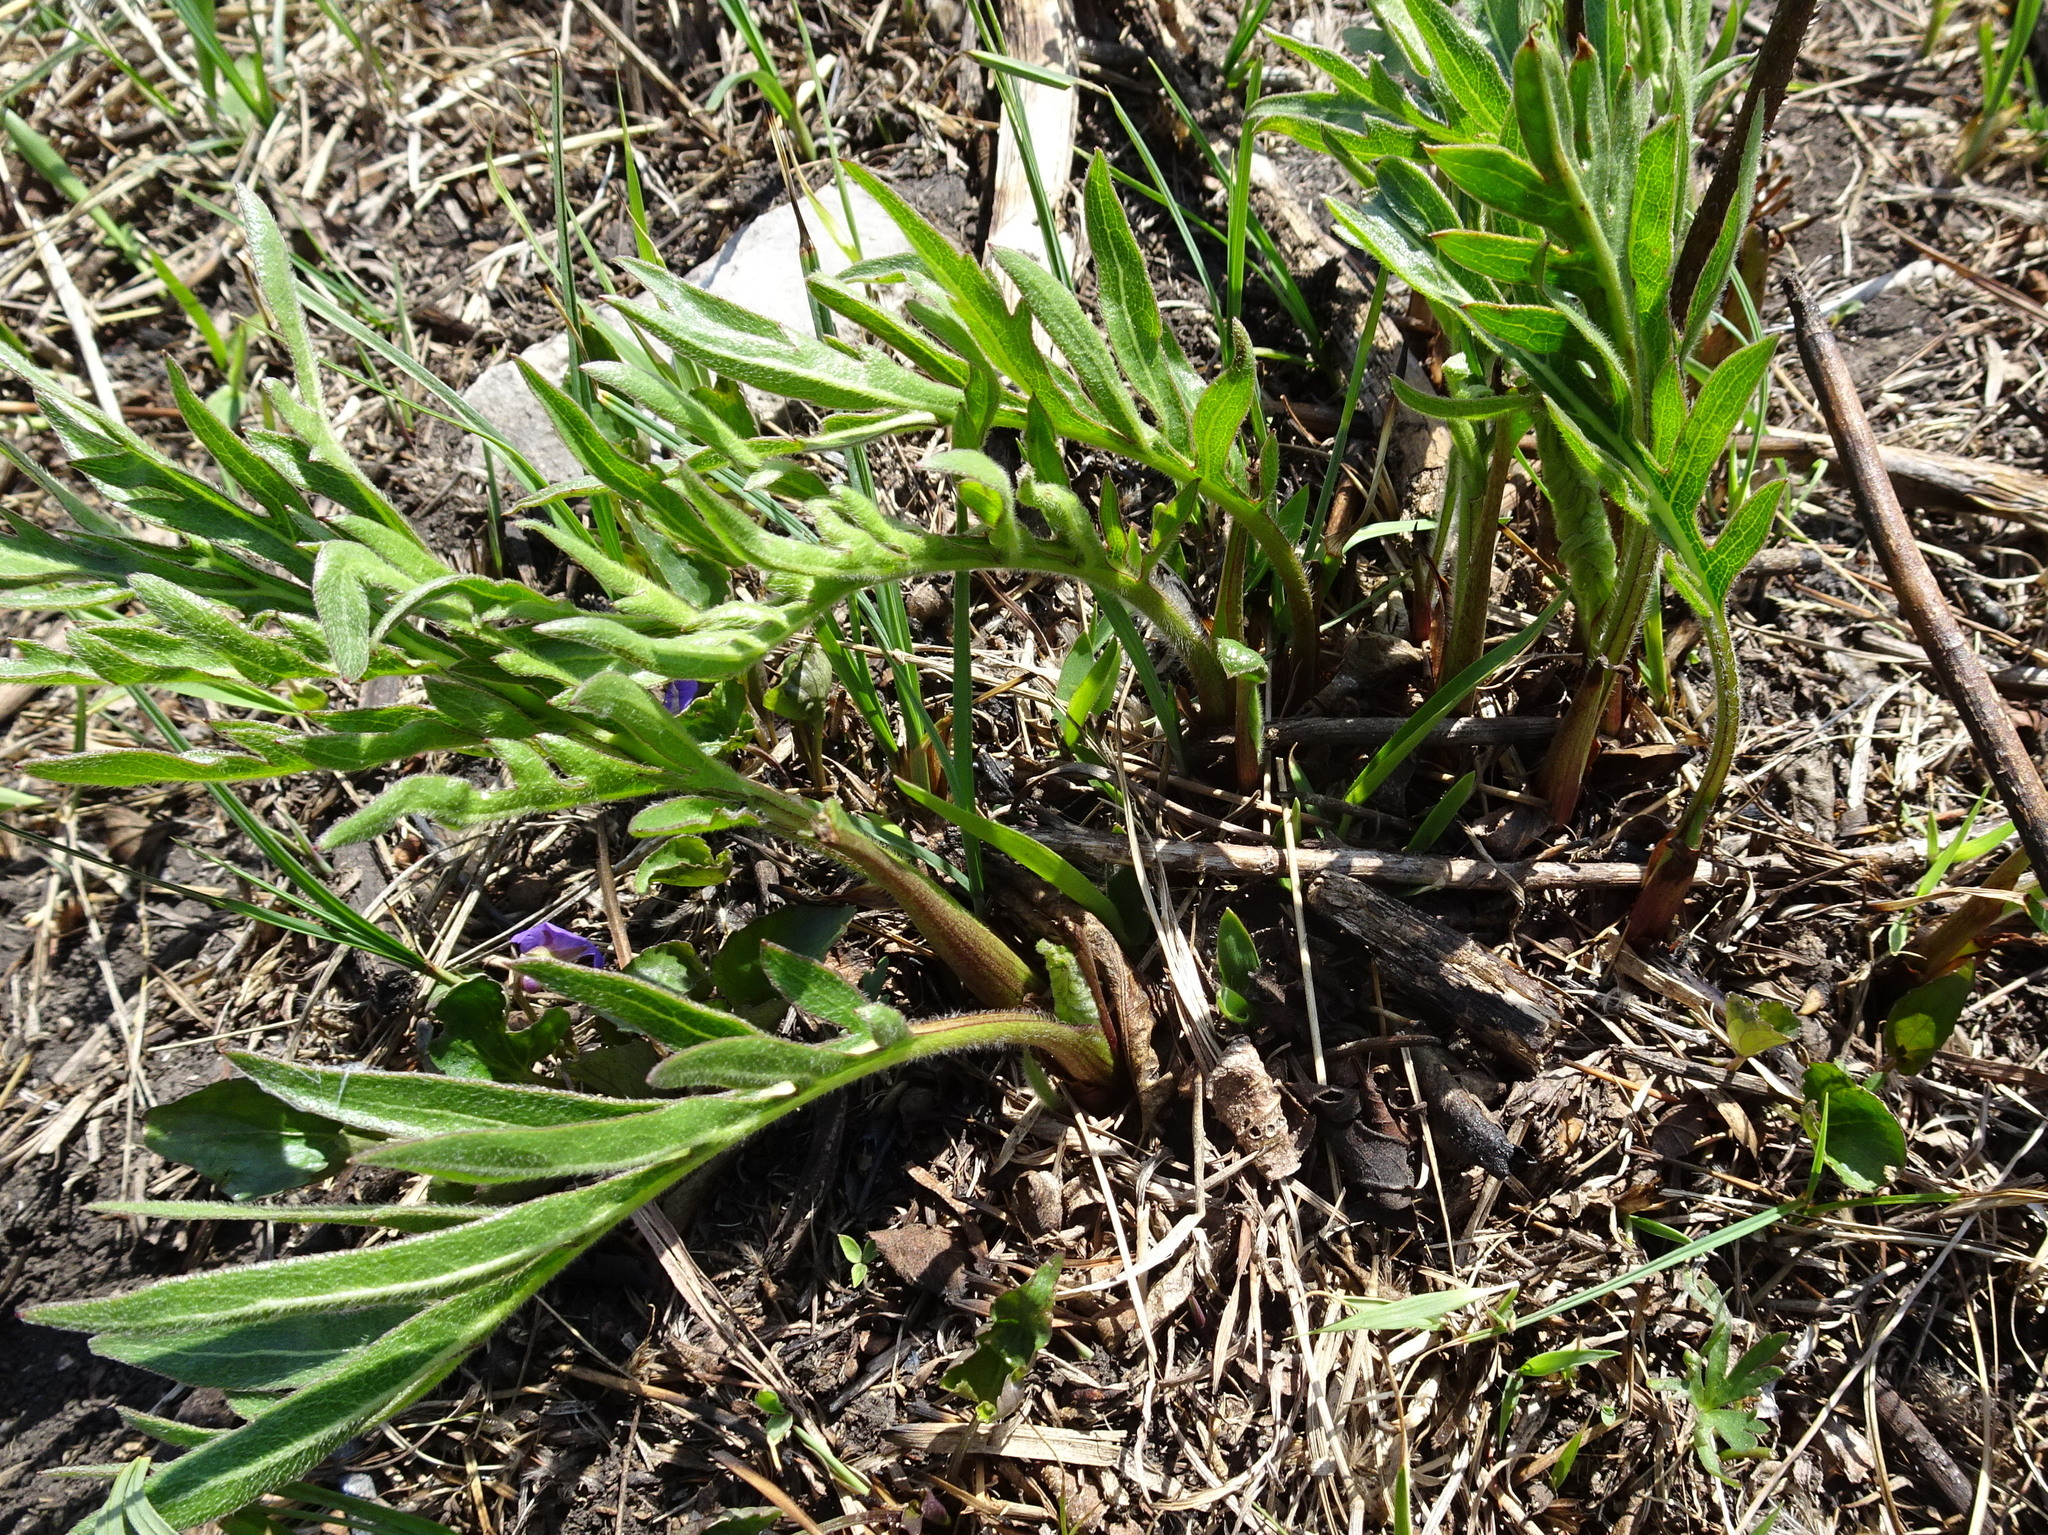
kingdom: Plantae
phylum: Tracheophyta
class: Magnoliopsida
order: Asterales
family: Asteraceae
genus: Silphium
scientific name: Silphium laciniatum
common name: Polarplant
